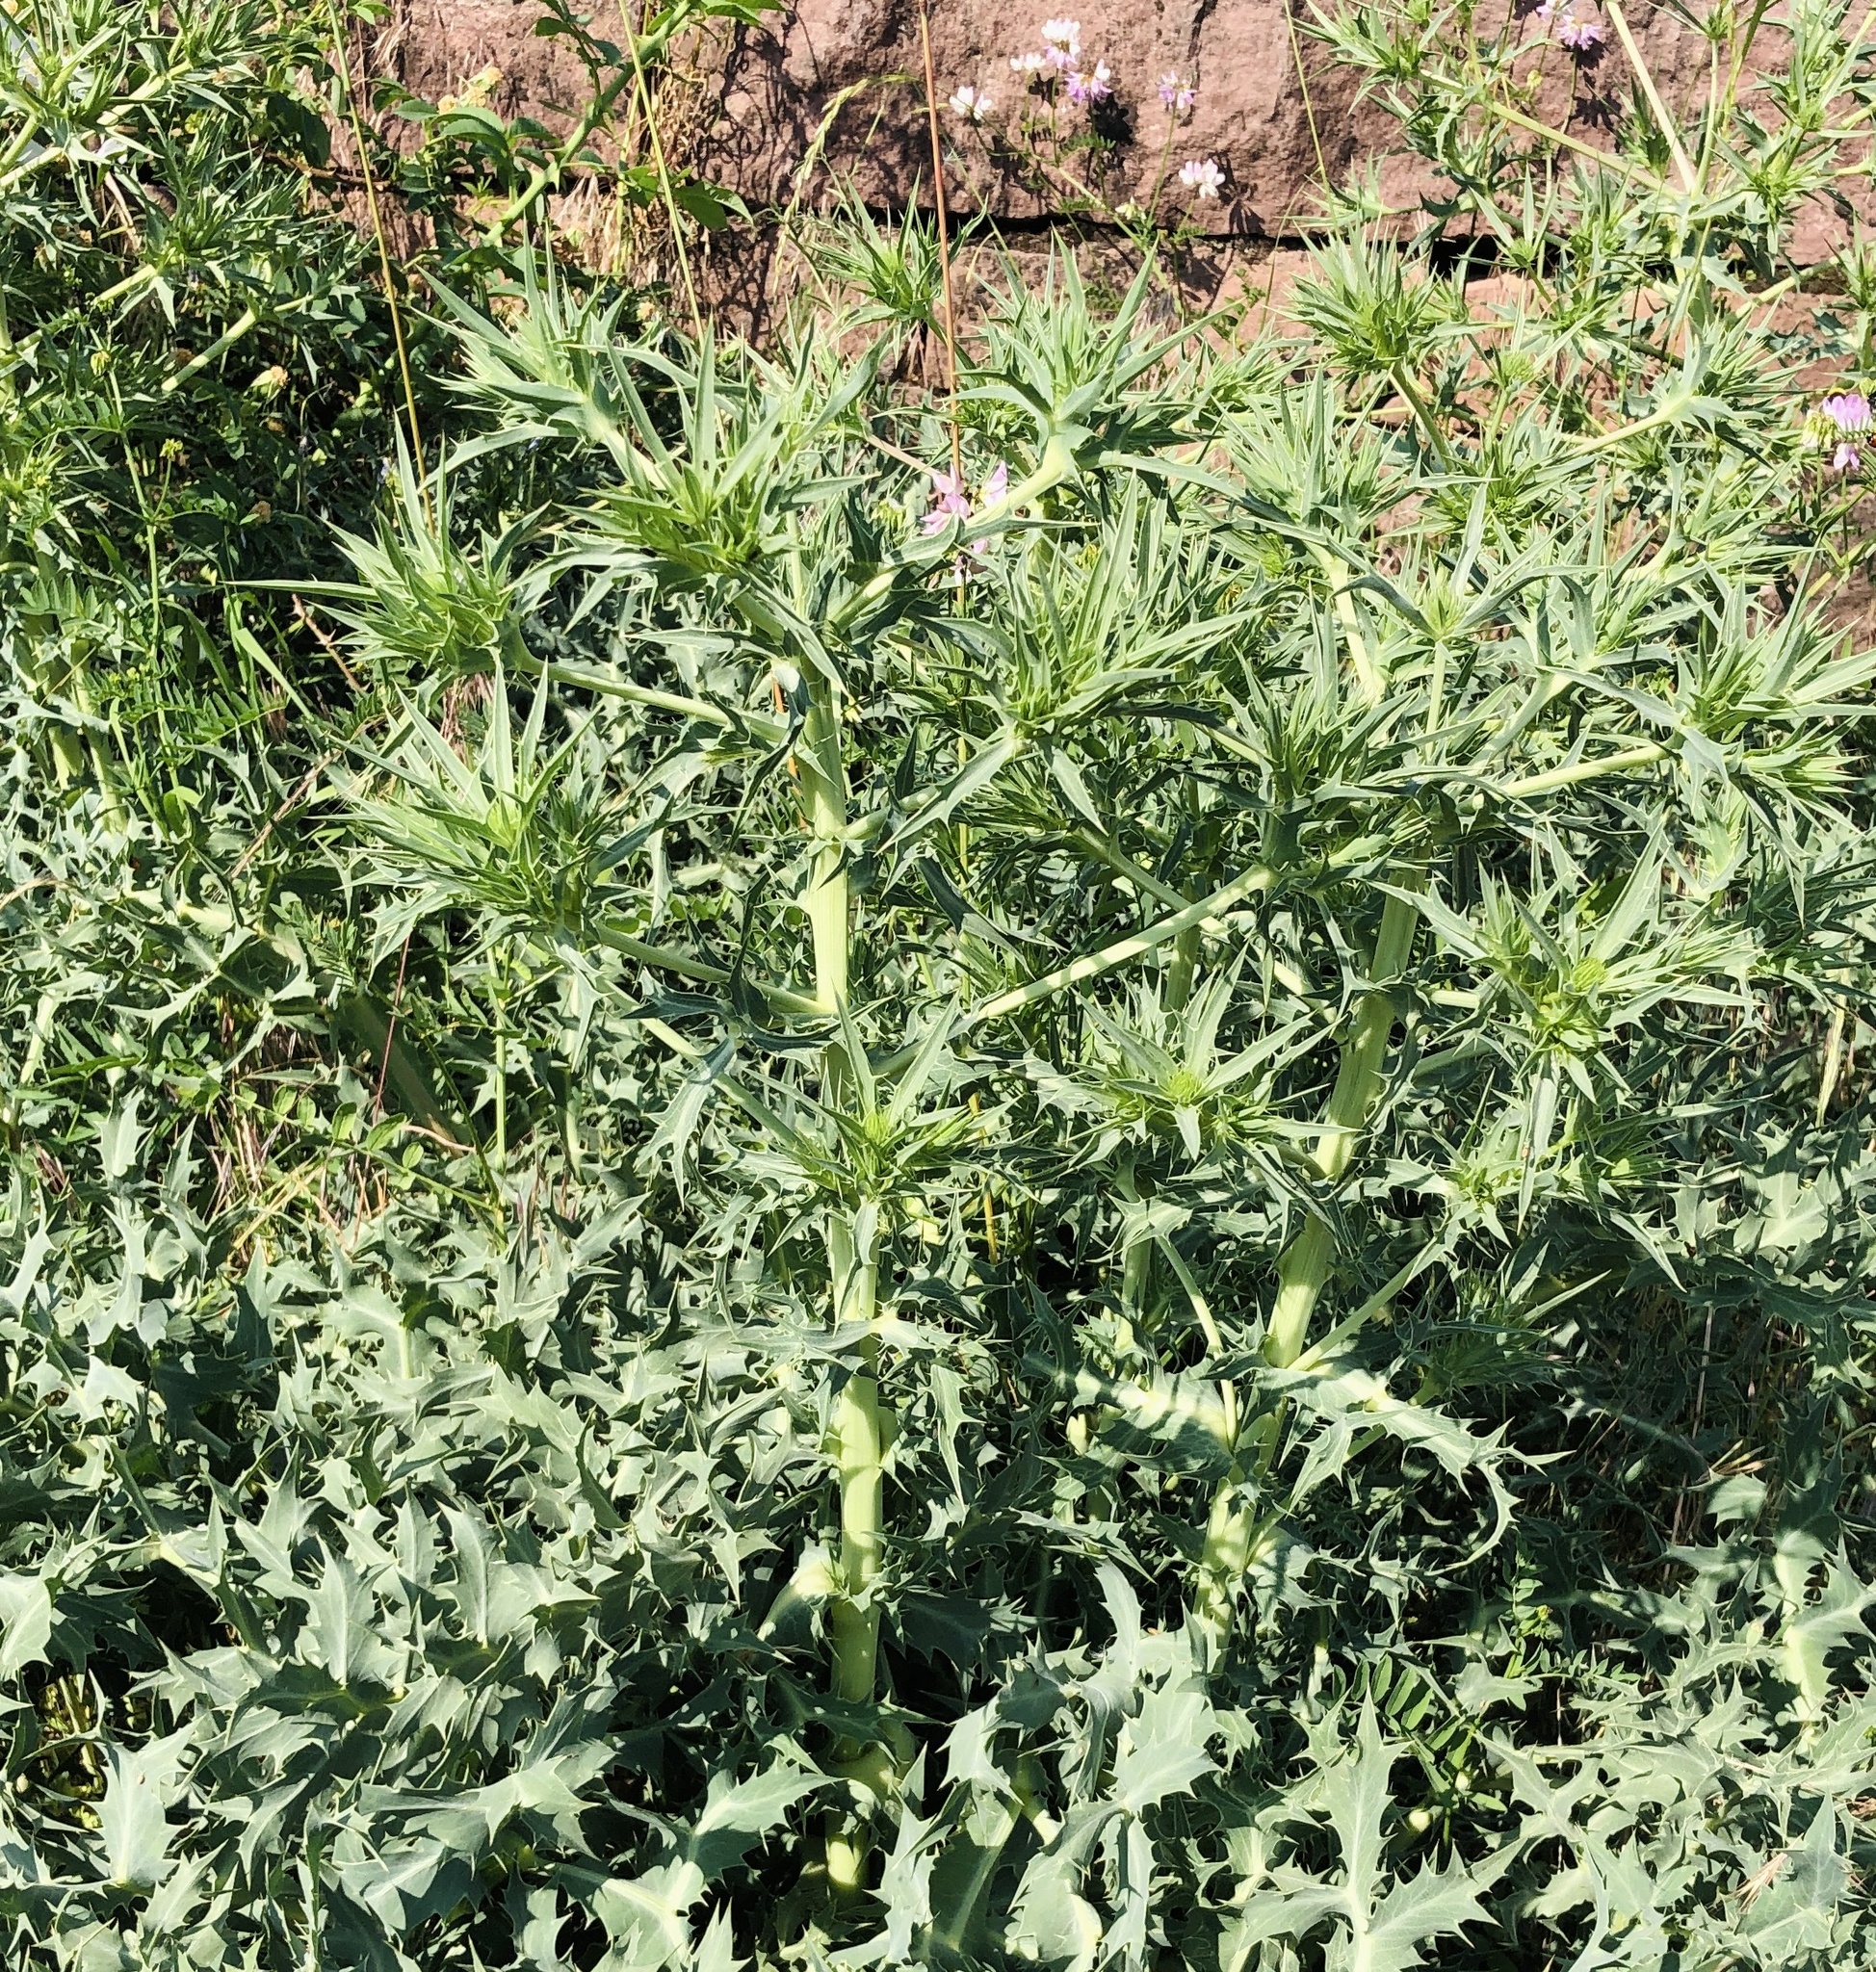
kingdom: Plantae
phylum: Tracheophyta
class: Magnoliopsida
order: Apiales
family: Apiaceae
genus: Eryngium
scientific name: Eryngium campestre
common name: Field eryngo
